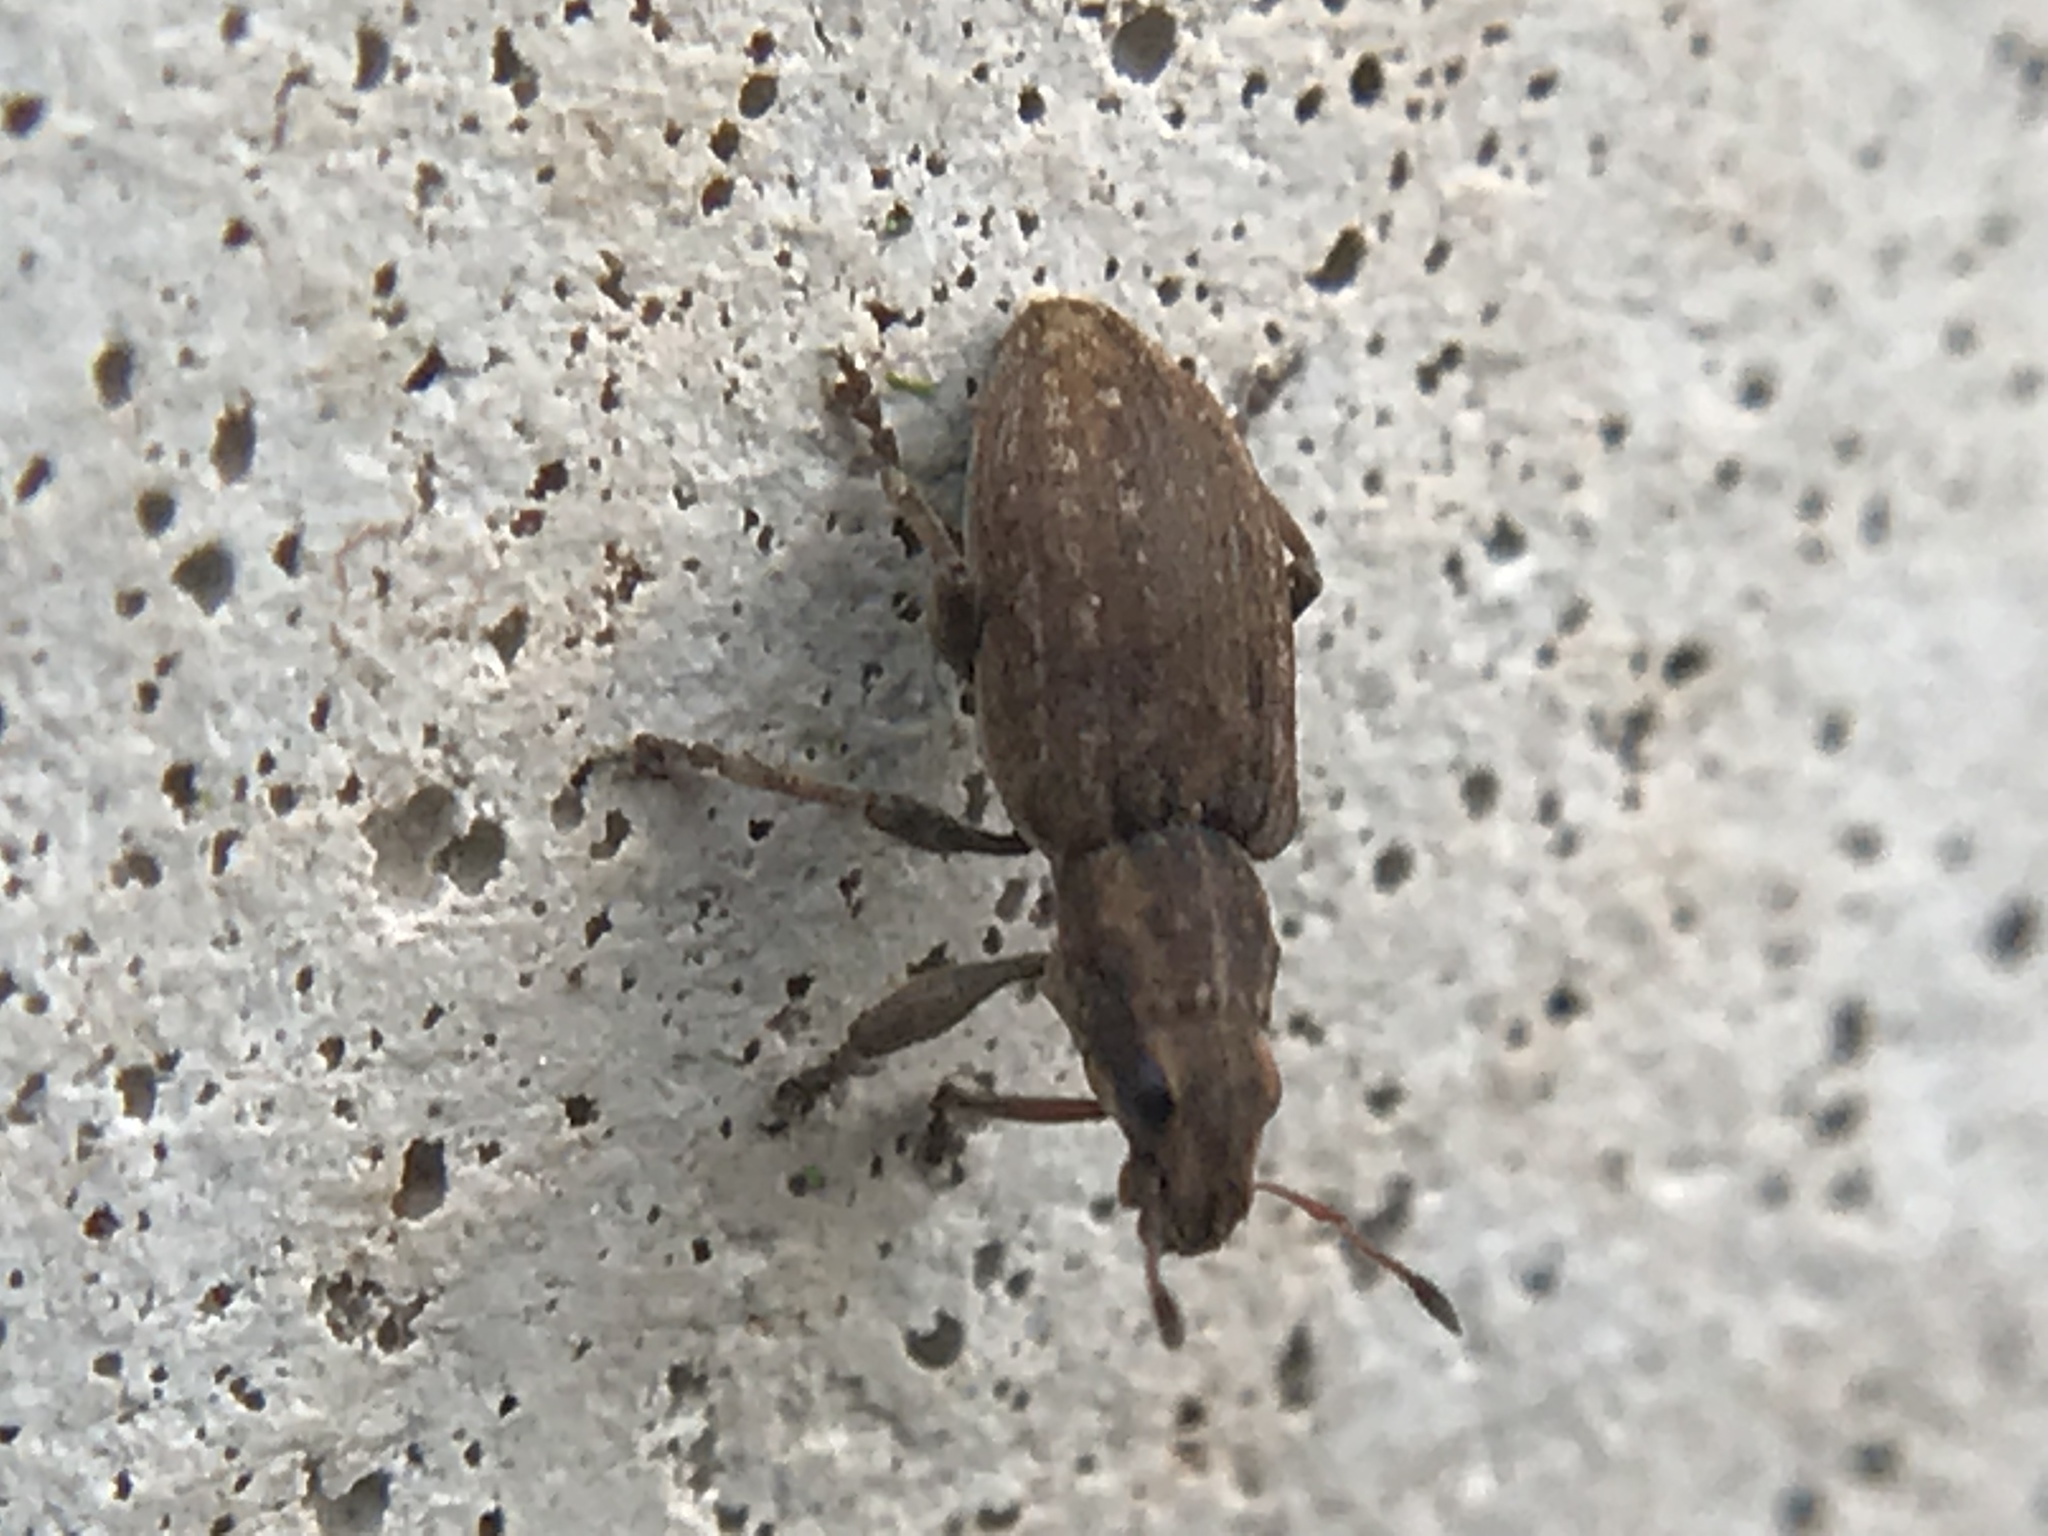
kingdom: Animalia
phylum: Arthropoda
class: Insecta
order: Coleoptera
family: Curculionidae
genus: Sitona
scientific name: Sitona obsoletus
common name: Weevil
